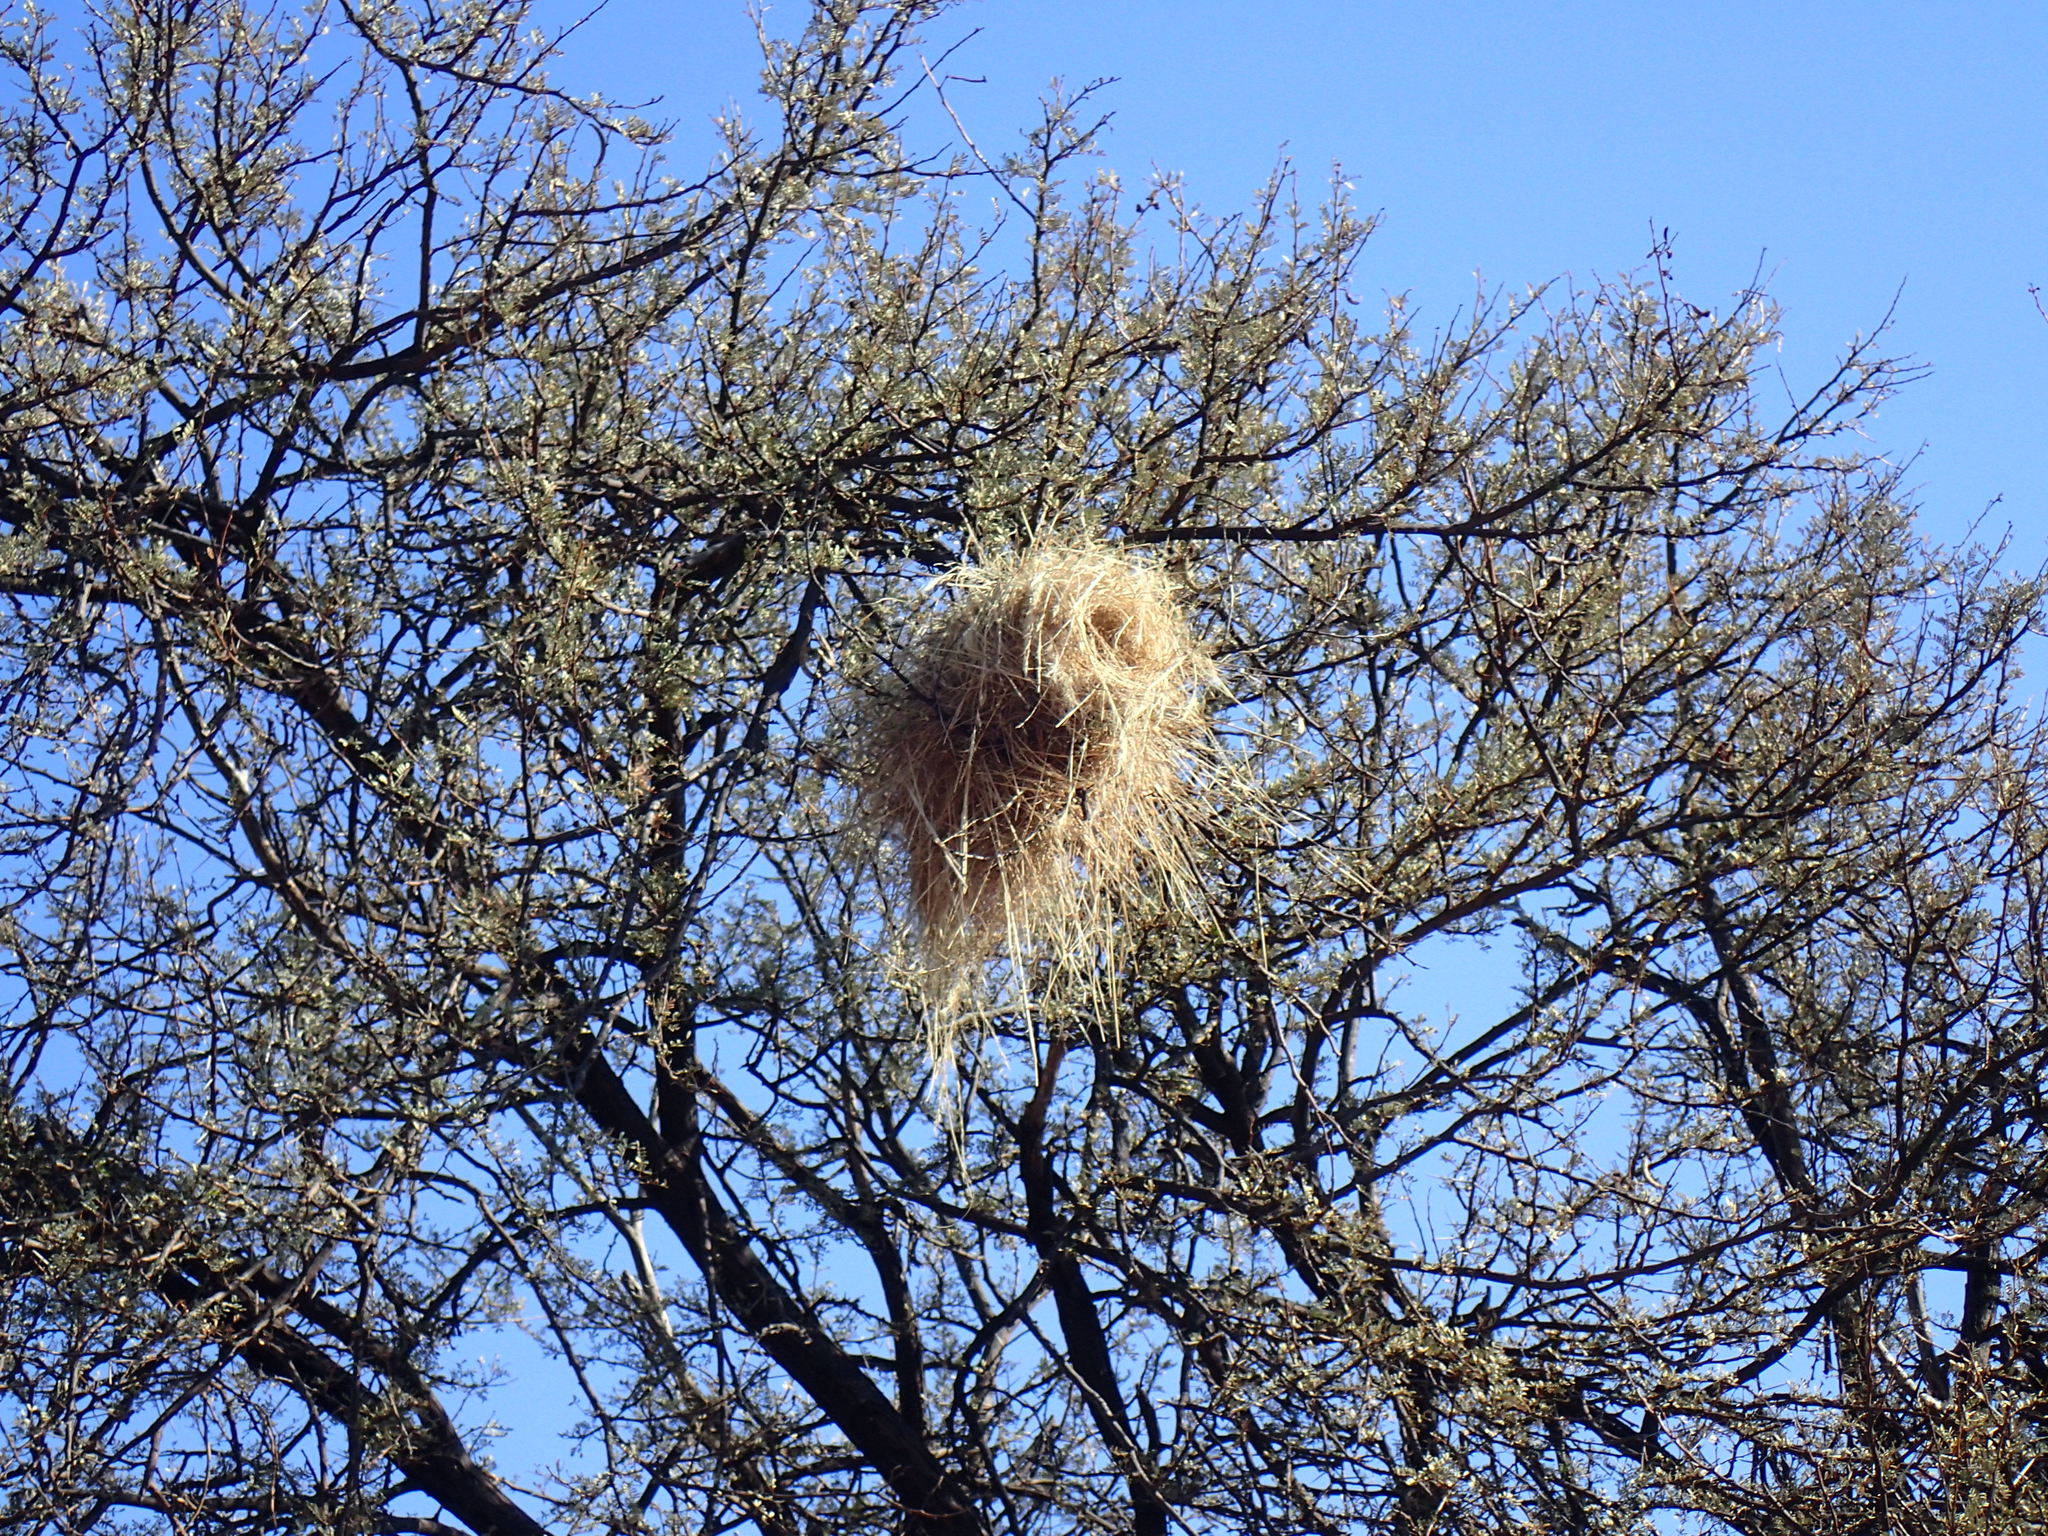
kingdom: Animalia
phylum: Chordata
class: Aves
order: Passeriformes
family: Passeridae
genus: Plocepasser
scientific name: Plocepasser mahali
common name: White-browed sparrow-weaver
